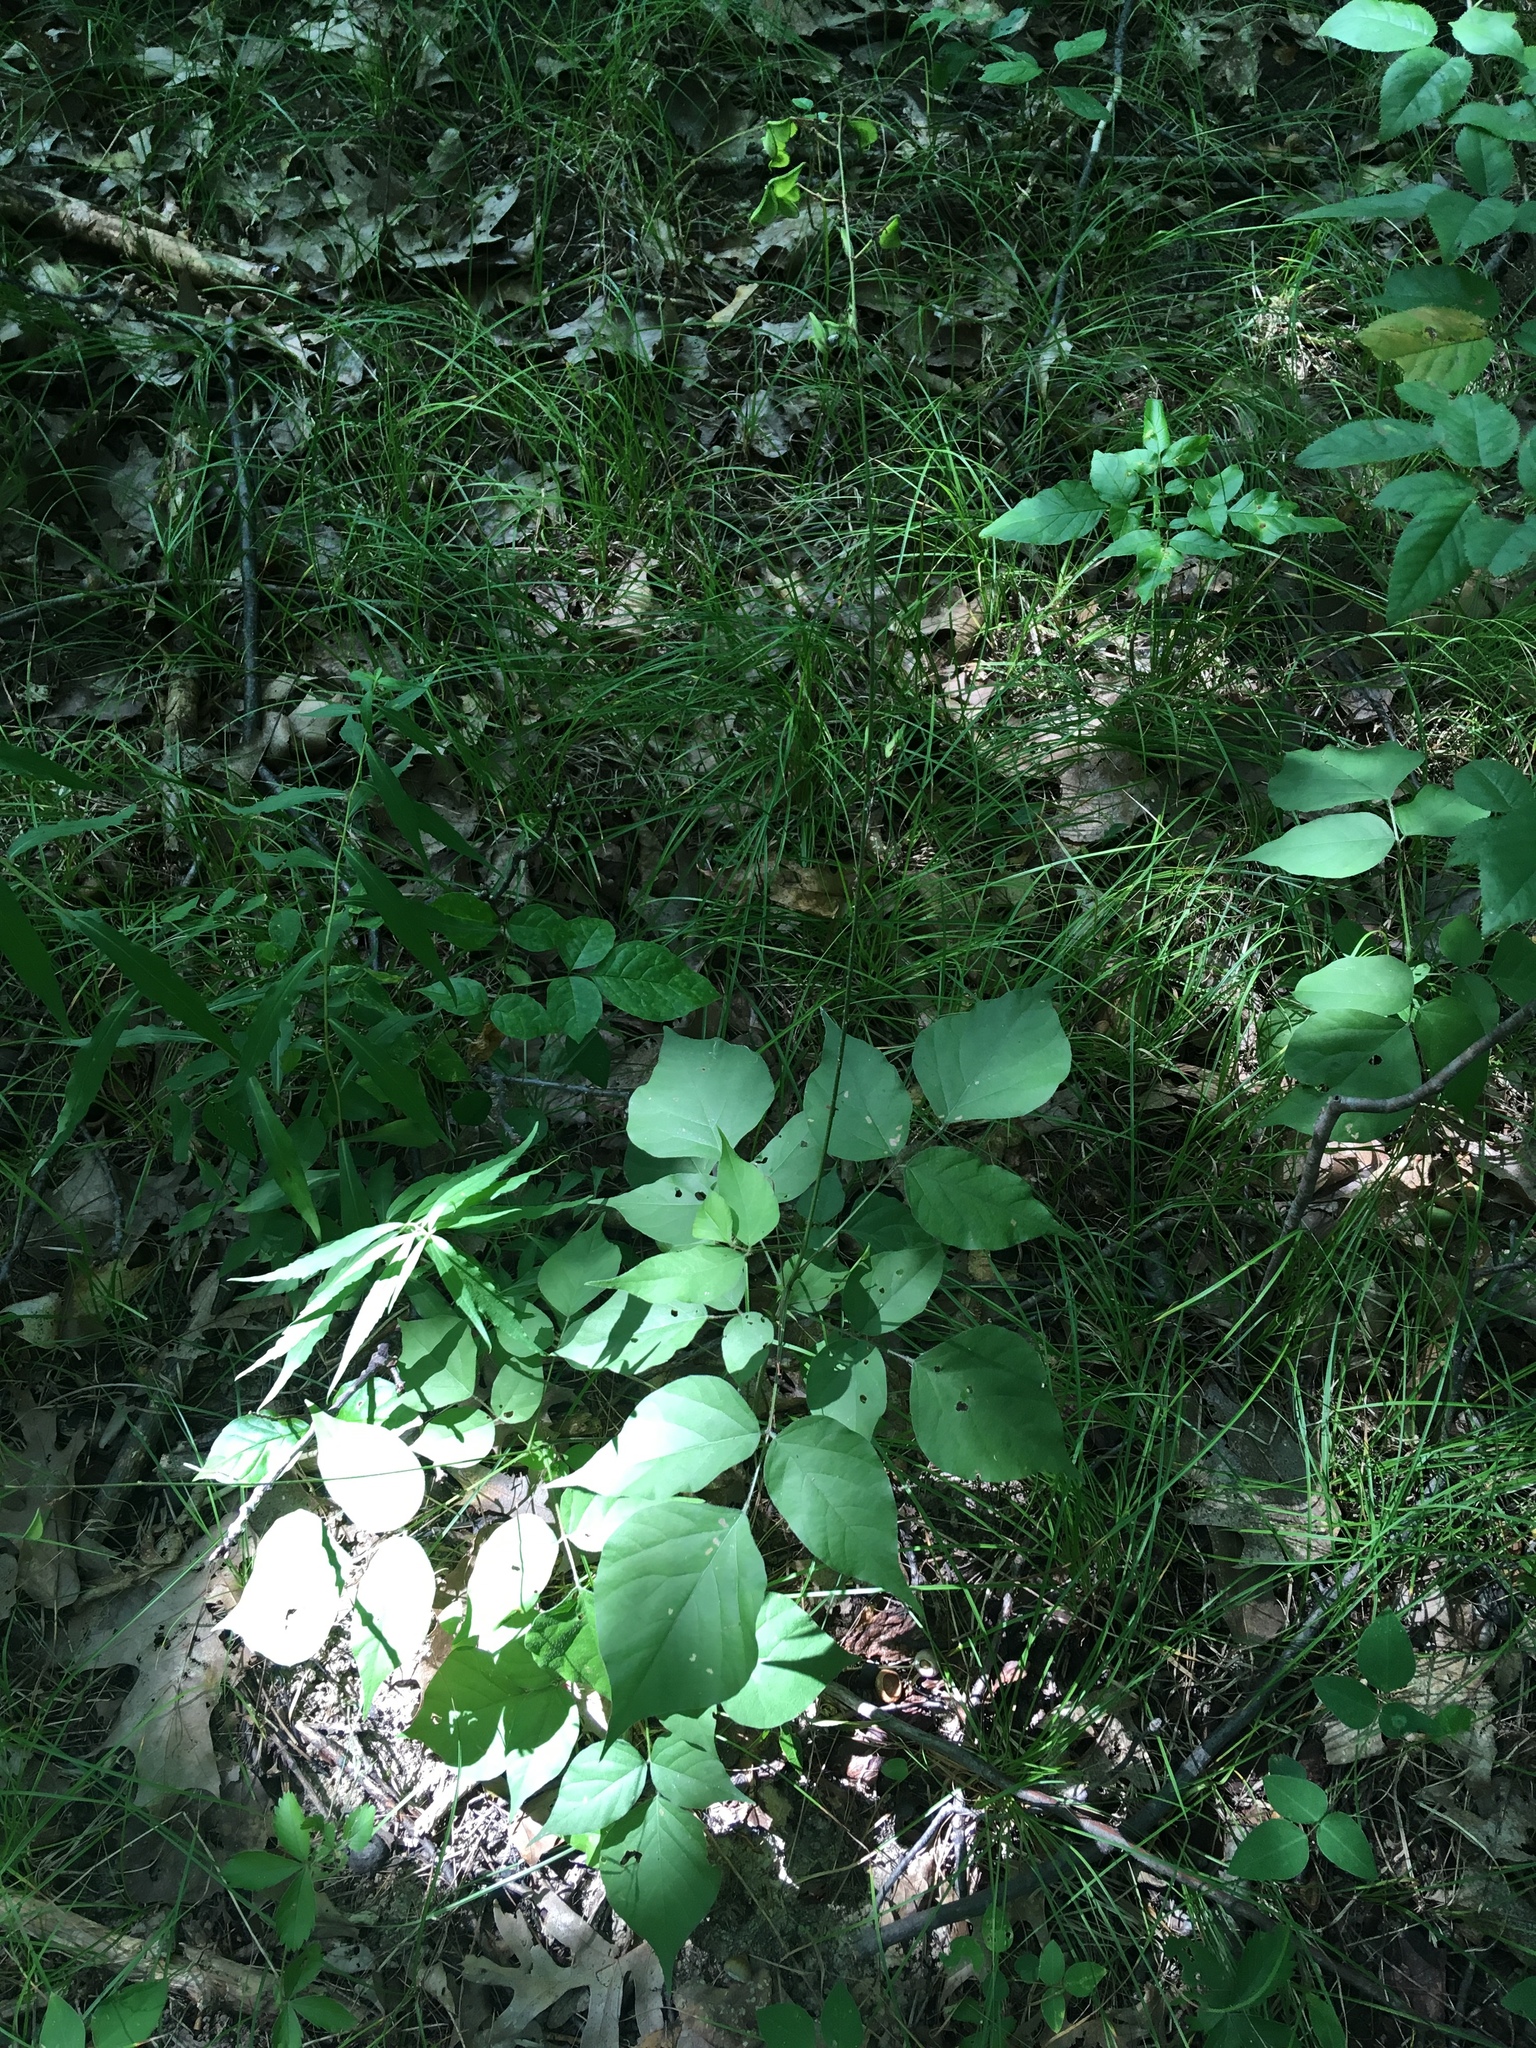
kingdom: Plantae
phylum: Tracheophyta
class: Magnoliopsida
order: Fabales
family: Fabaceae
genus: Hylodesmum
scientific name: Hylodesmum glutinosum
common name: Clustered-leaved tick-trefoil
